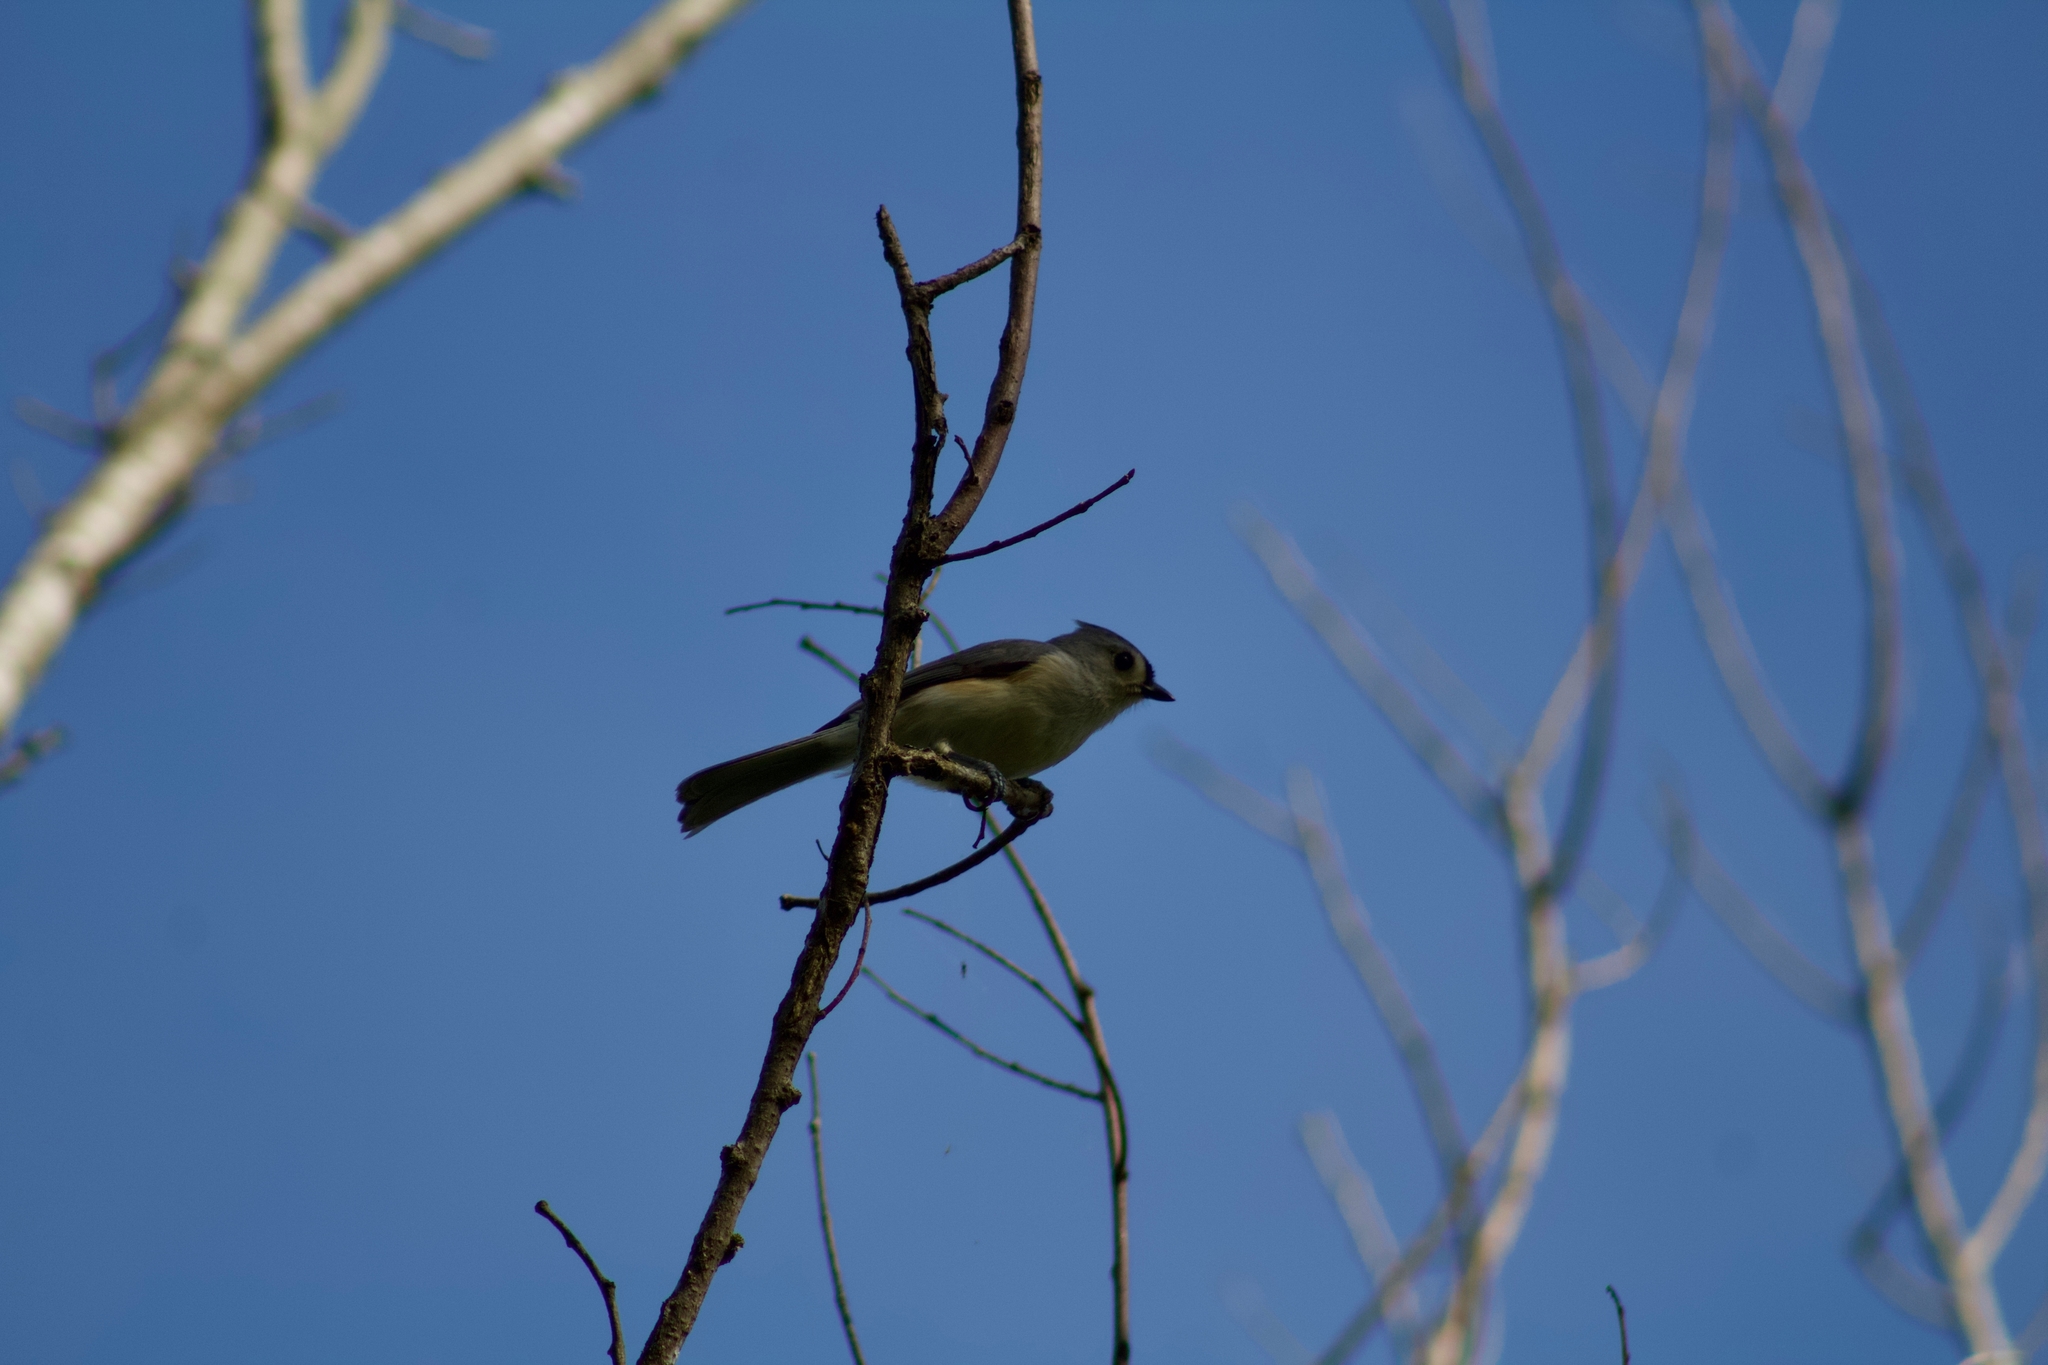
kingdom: Animalia
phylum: Chordata
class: Aves
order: Passeriformes
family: Paridae
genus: Baeolophus
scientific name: Baeolophus bicolor
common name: Tufted titmouse
